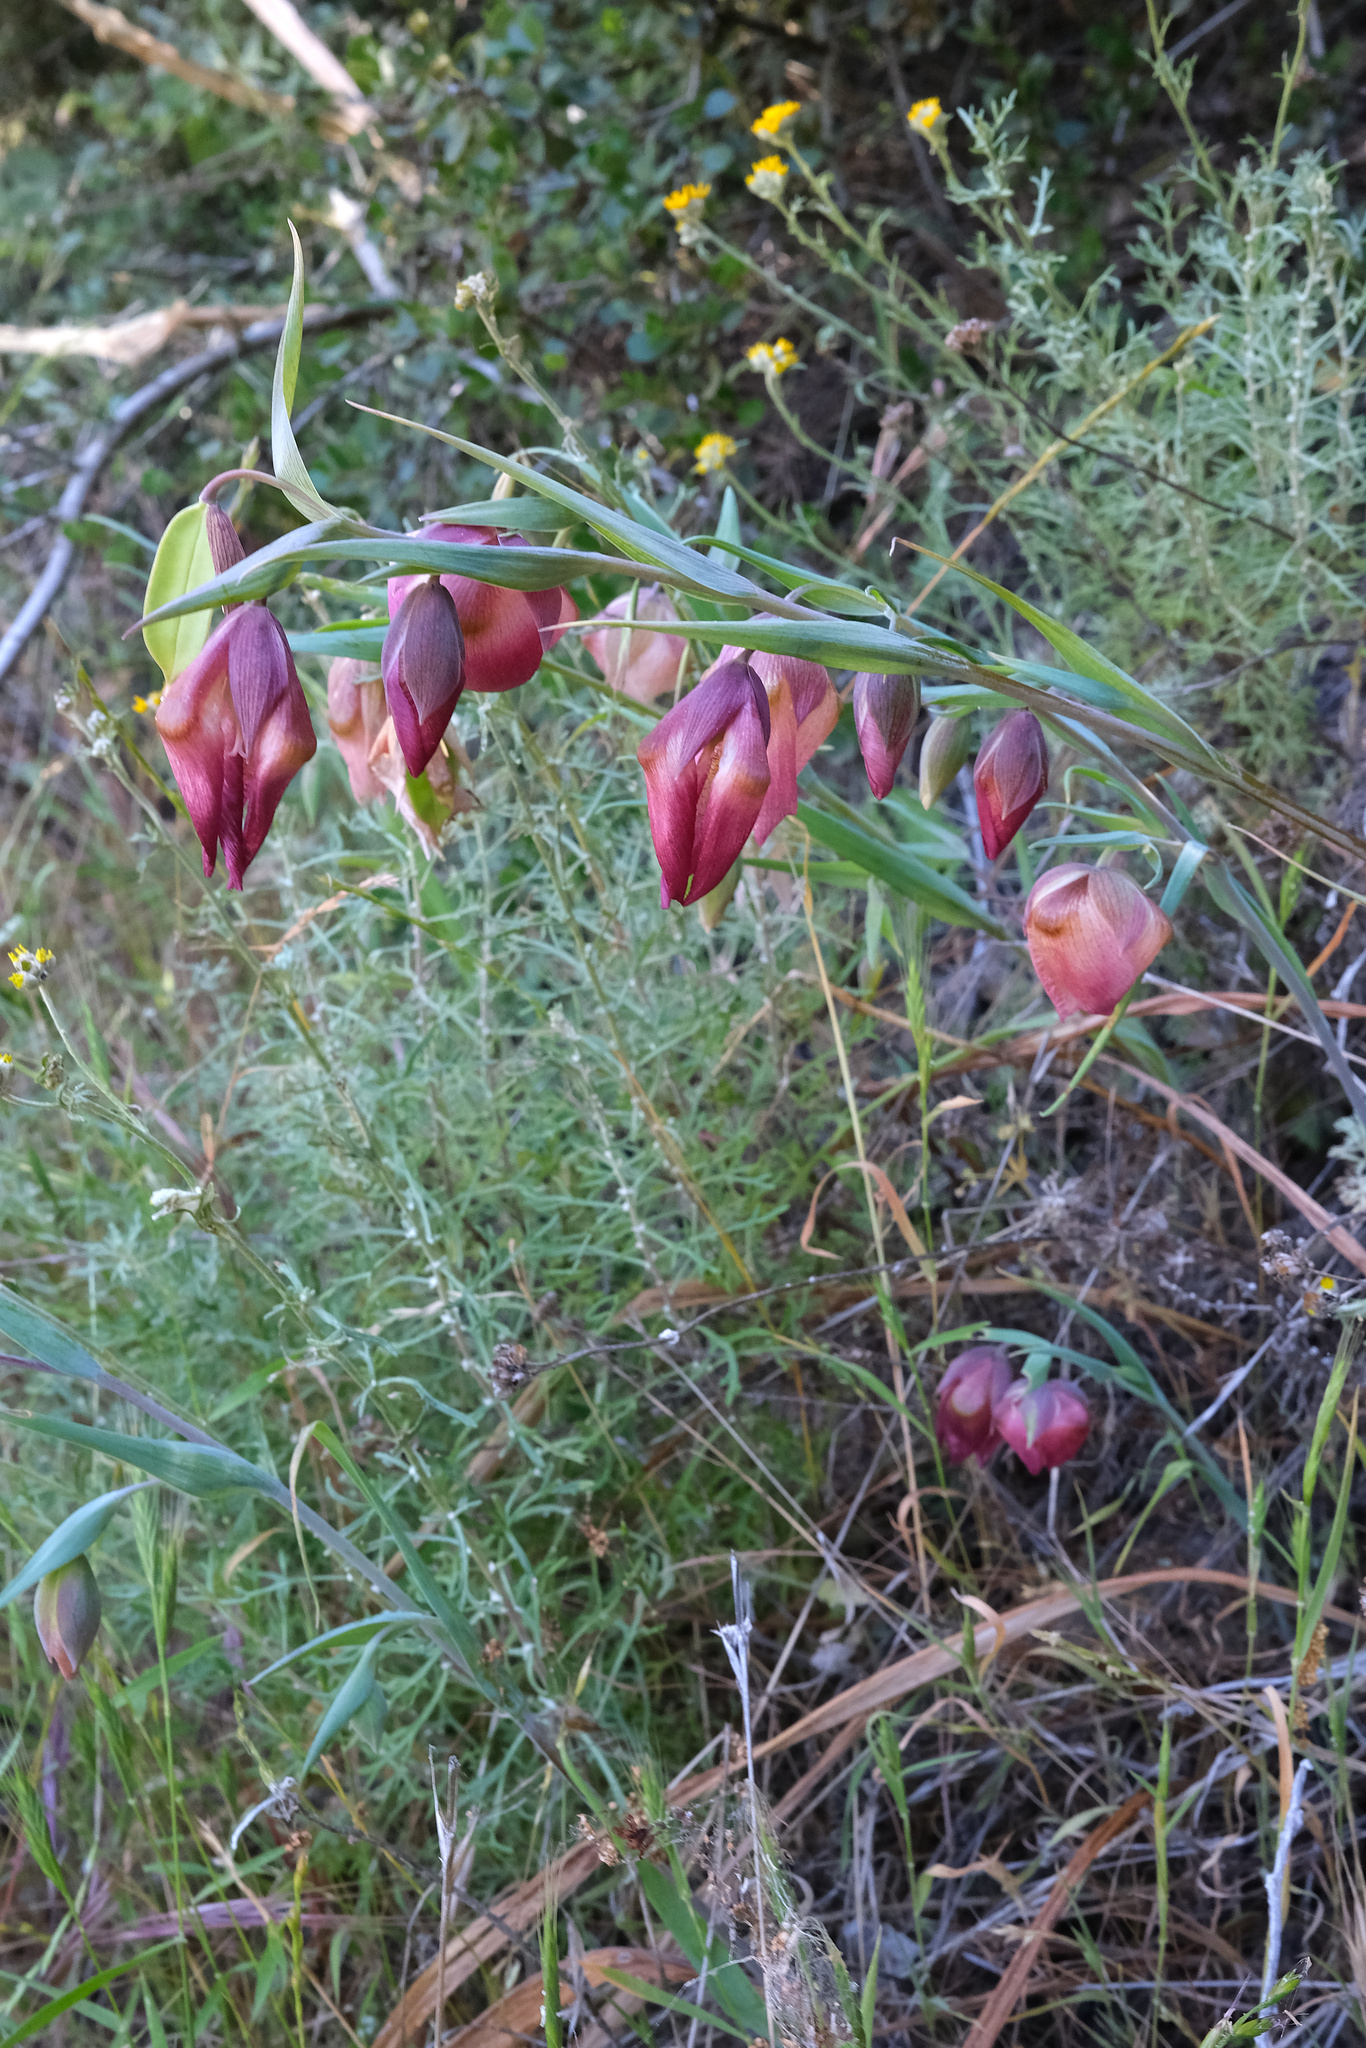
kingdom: Plantae
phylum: Tracheophyta
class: Liliopsida
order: Liliales
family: Liliaceae
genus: Calochortus
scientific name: Calochortus albus
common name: Fairy-lantern
